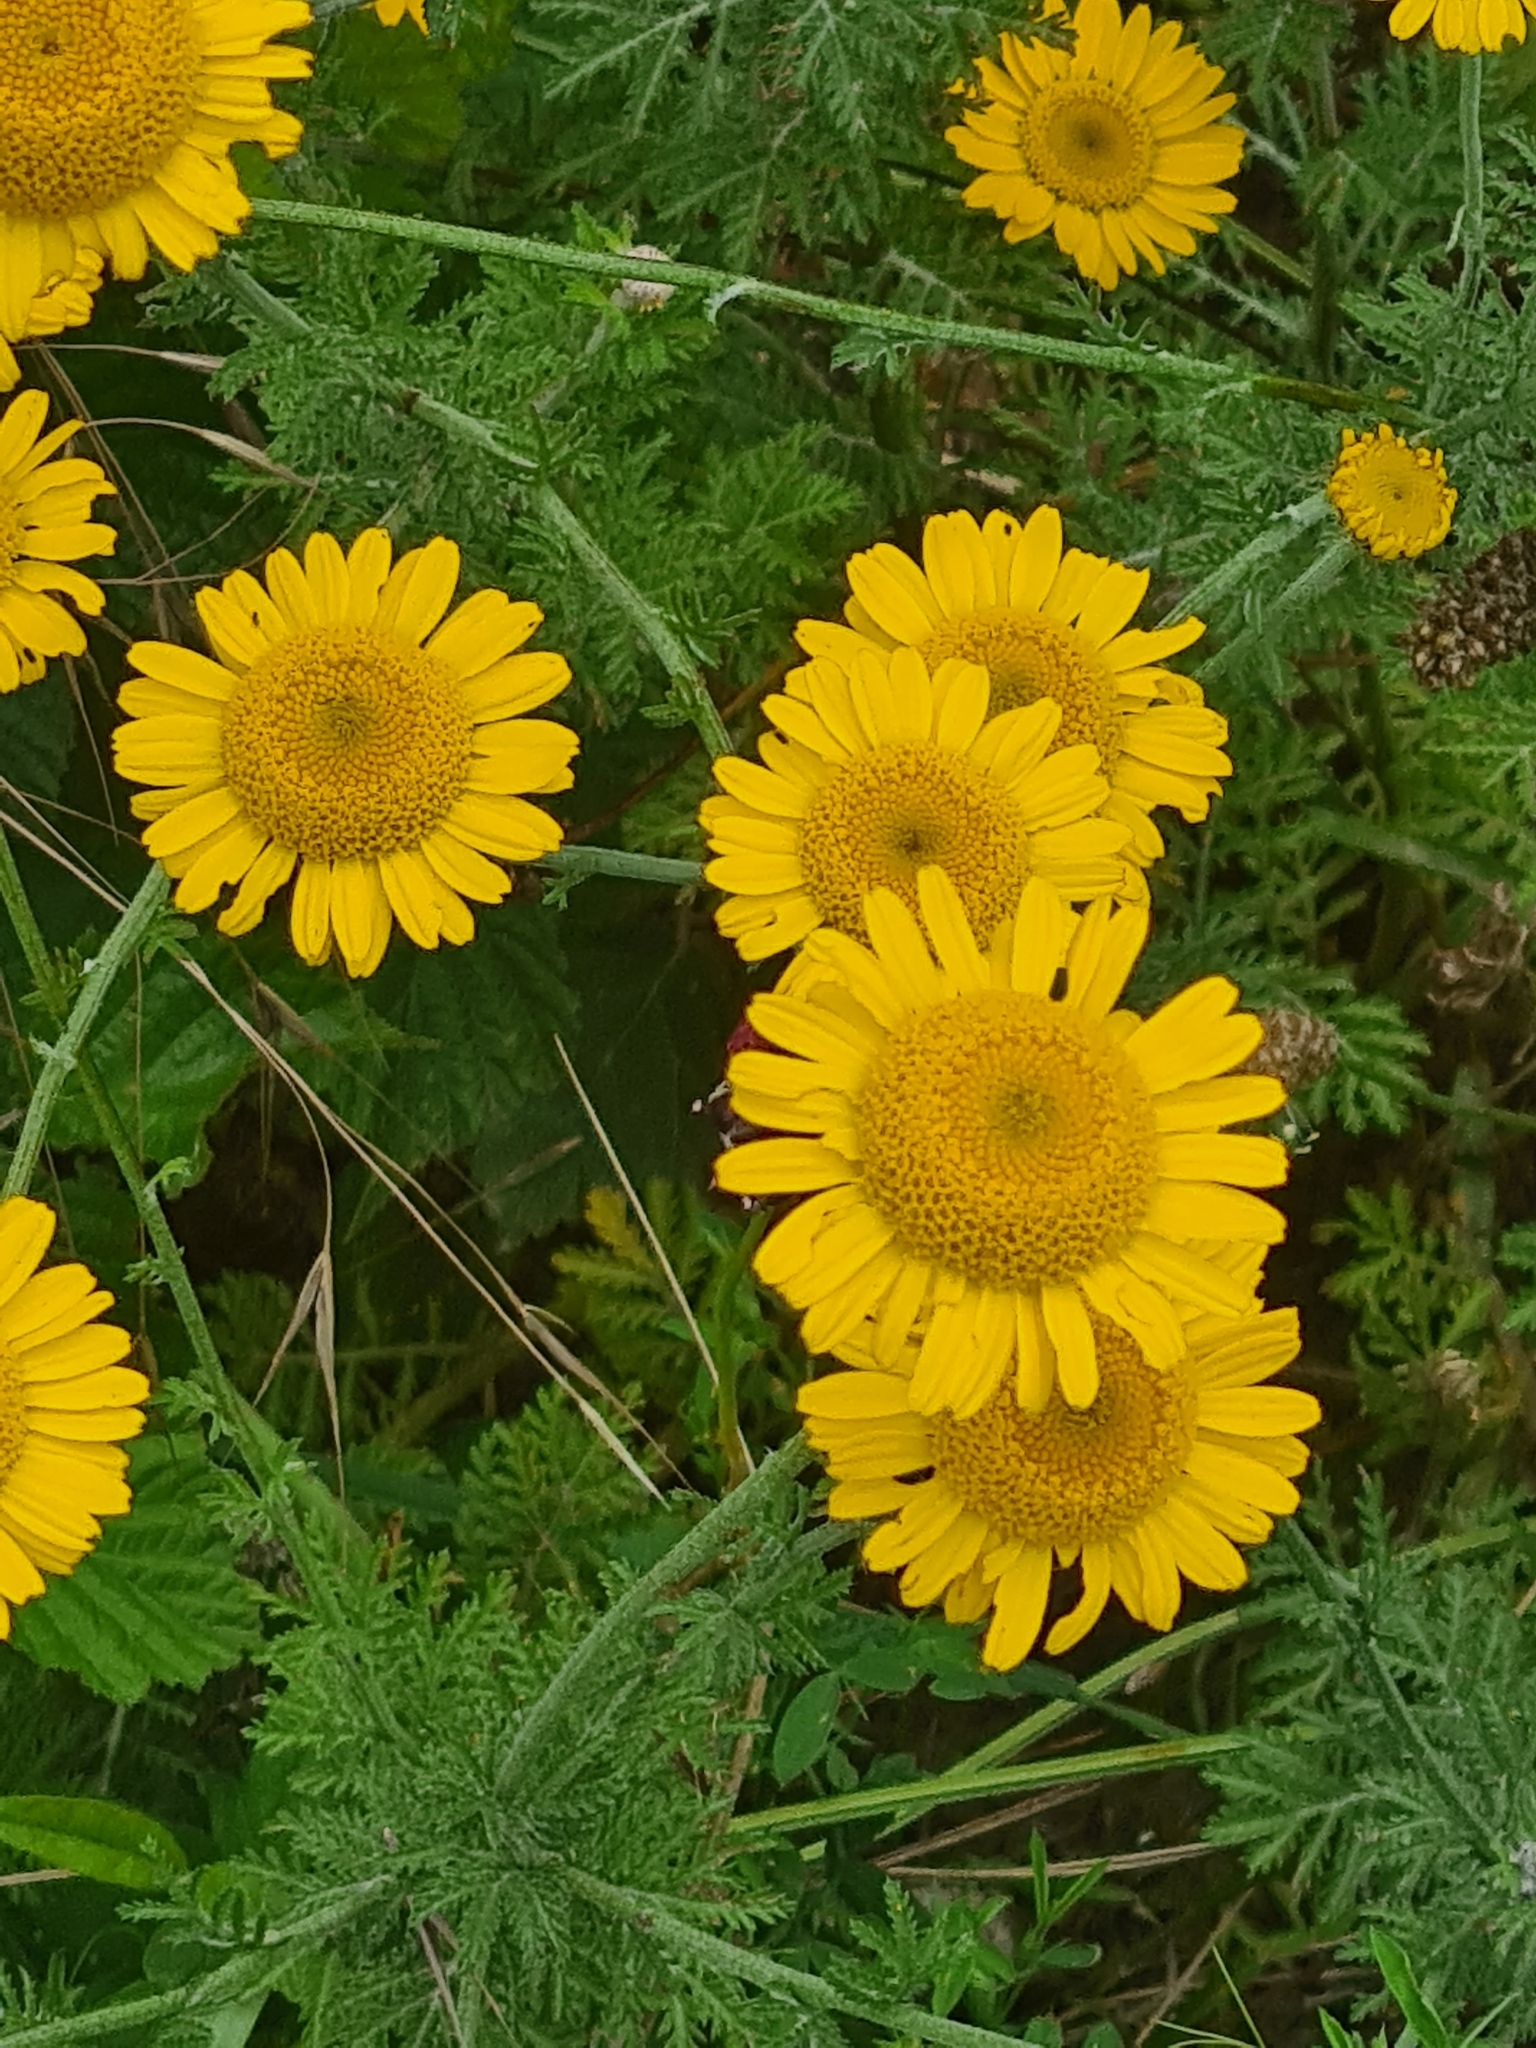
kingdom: Plantae
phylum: Tracheophyta
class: Magnoliopsida
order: Asterales
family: Asteraceae
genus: Cota
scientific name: Cota tinctoria
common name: Golden chamomile
